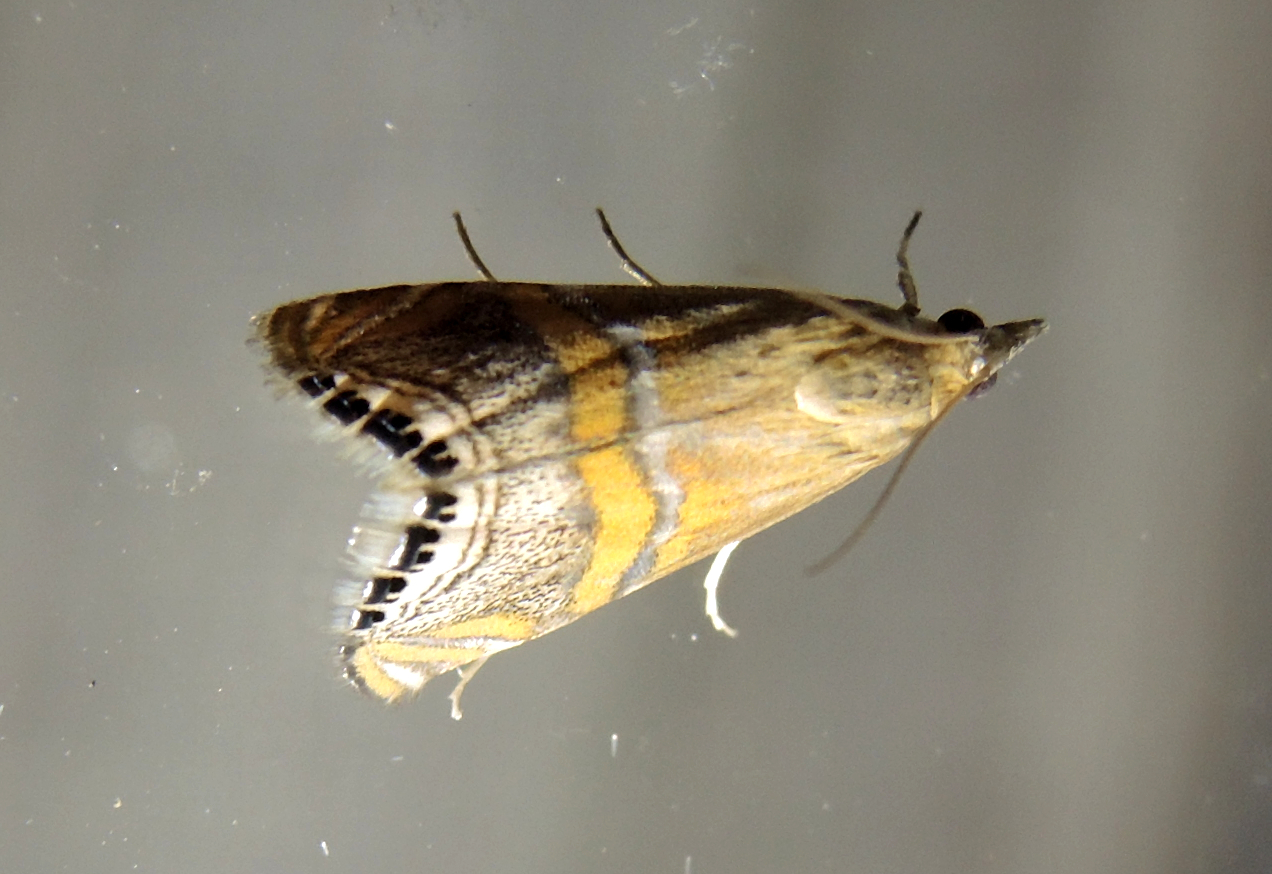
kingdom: Animalia
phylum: Arthropoda
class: Insecta
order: Lepidoptera
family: Crambidae
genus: Euchromius
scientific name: Euchromius bella
